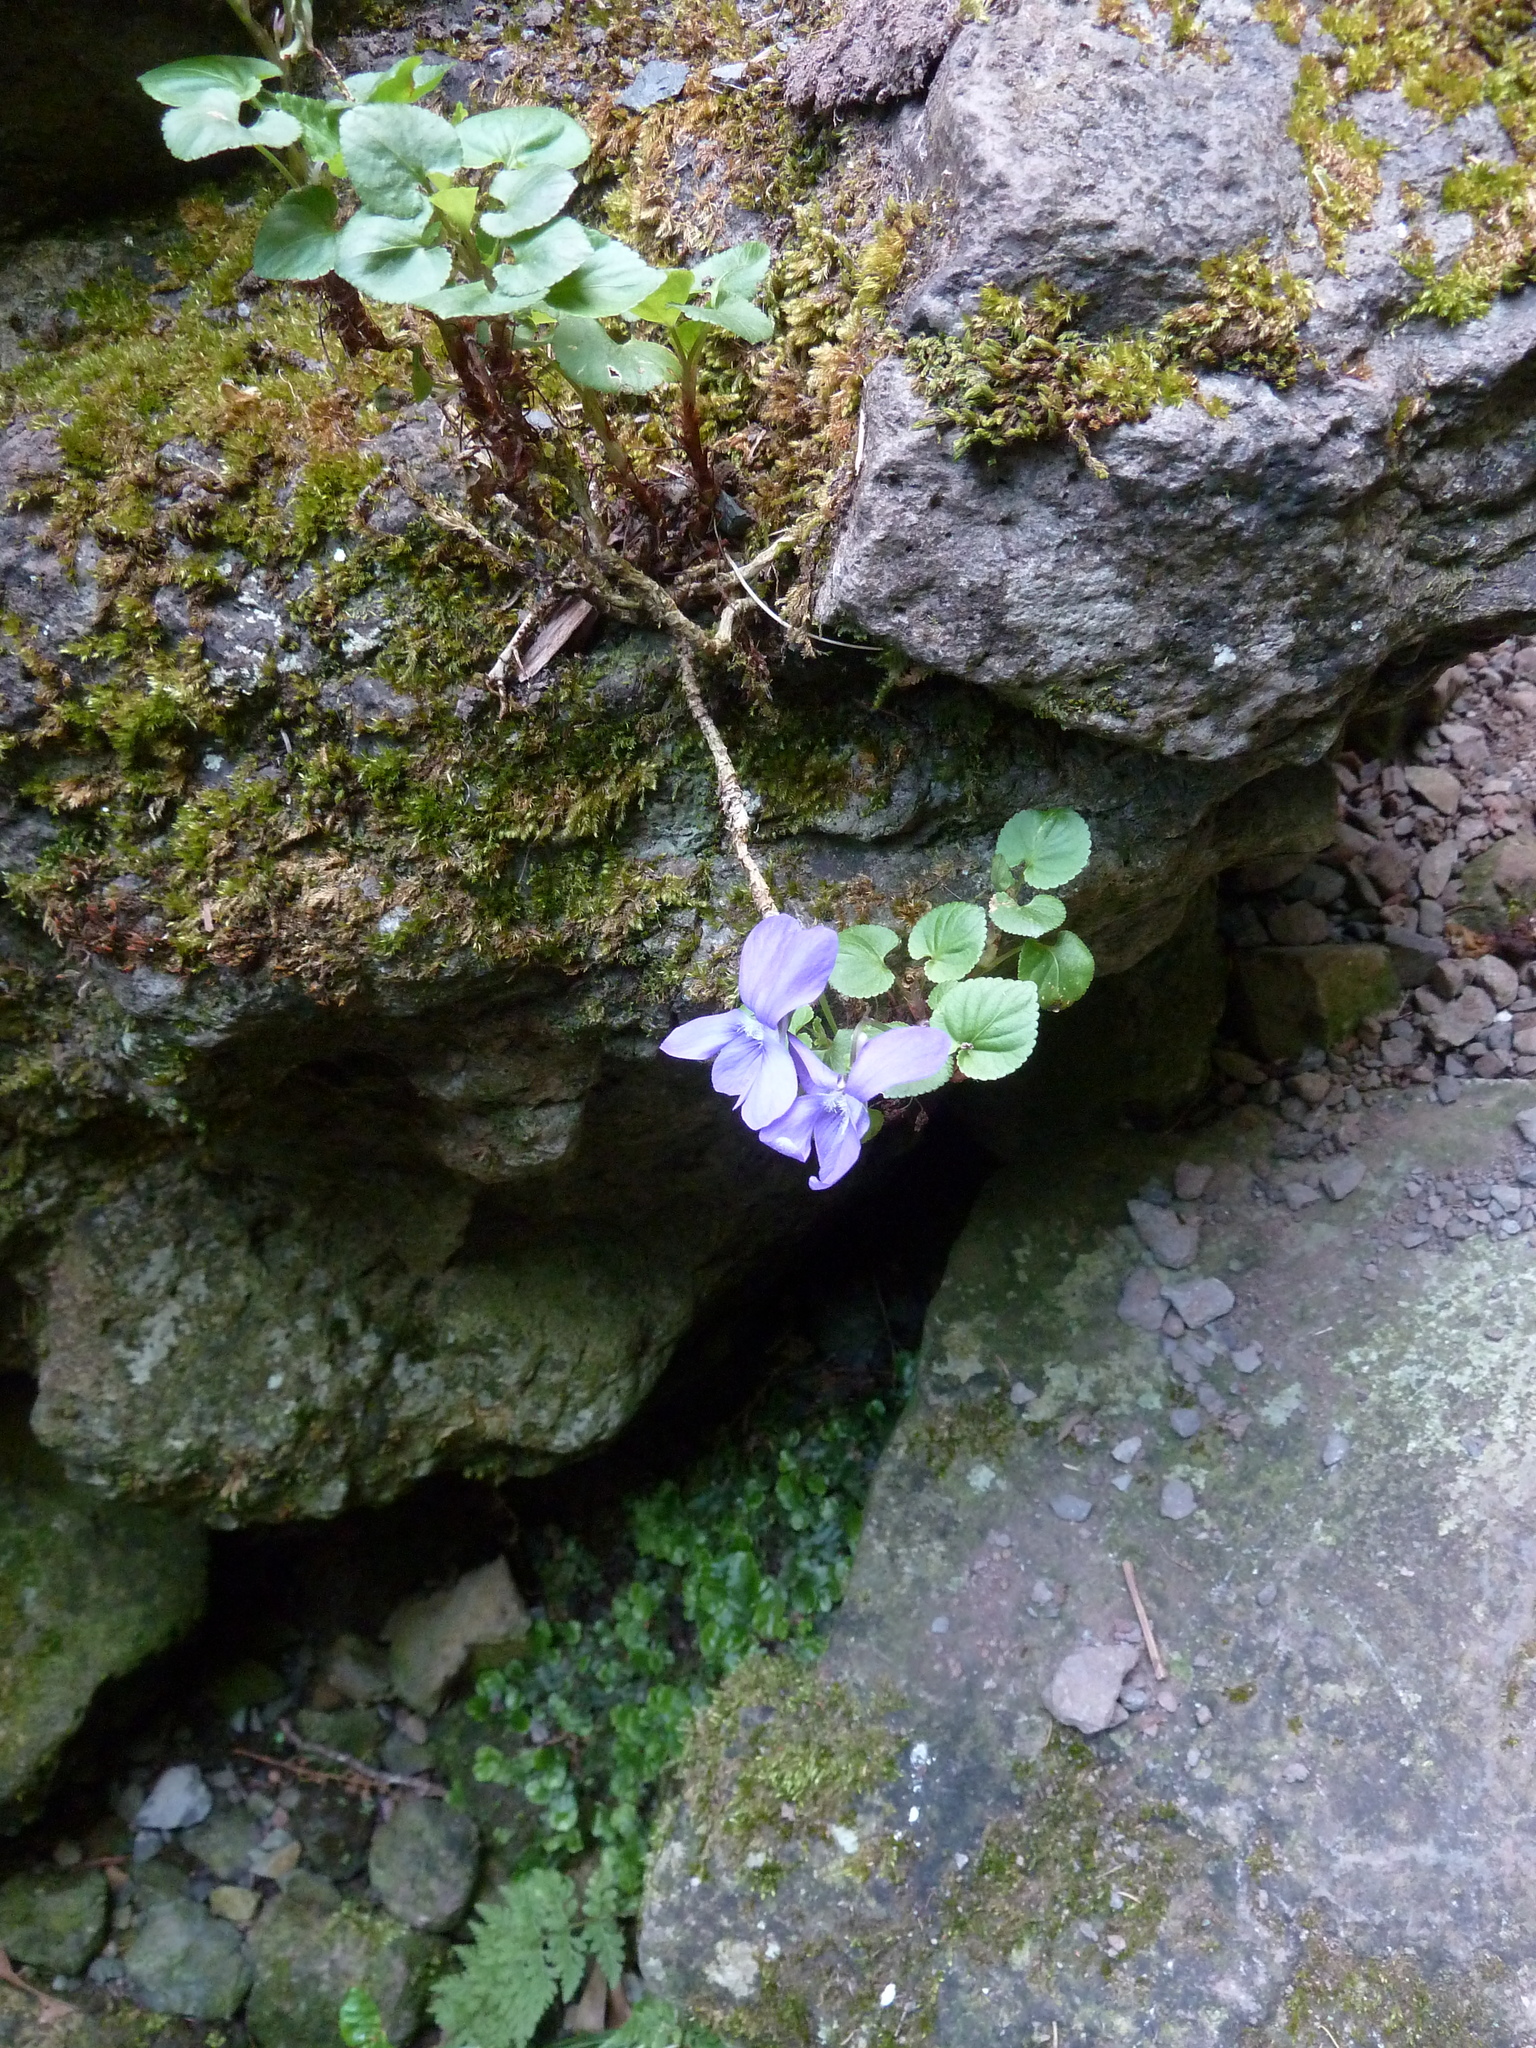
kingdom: Plantae
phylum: Tracheophyta
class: Magnoliopsida
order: Malpighiales
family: Violaceae
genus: Viola
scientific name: Viola riviniana
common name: Common dog-violet
